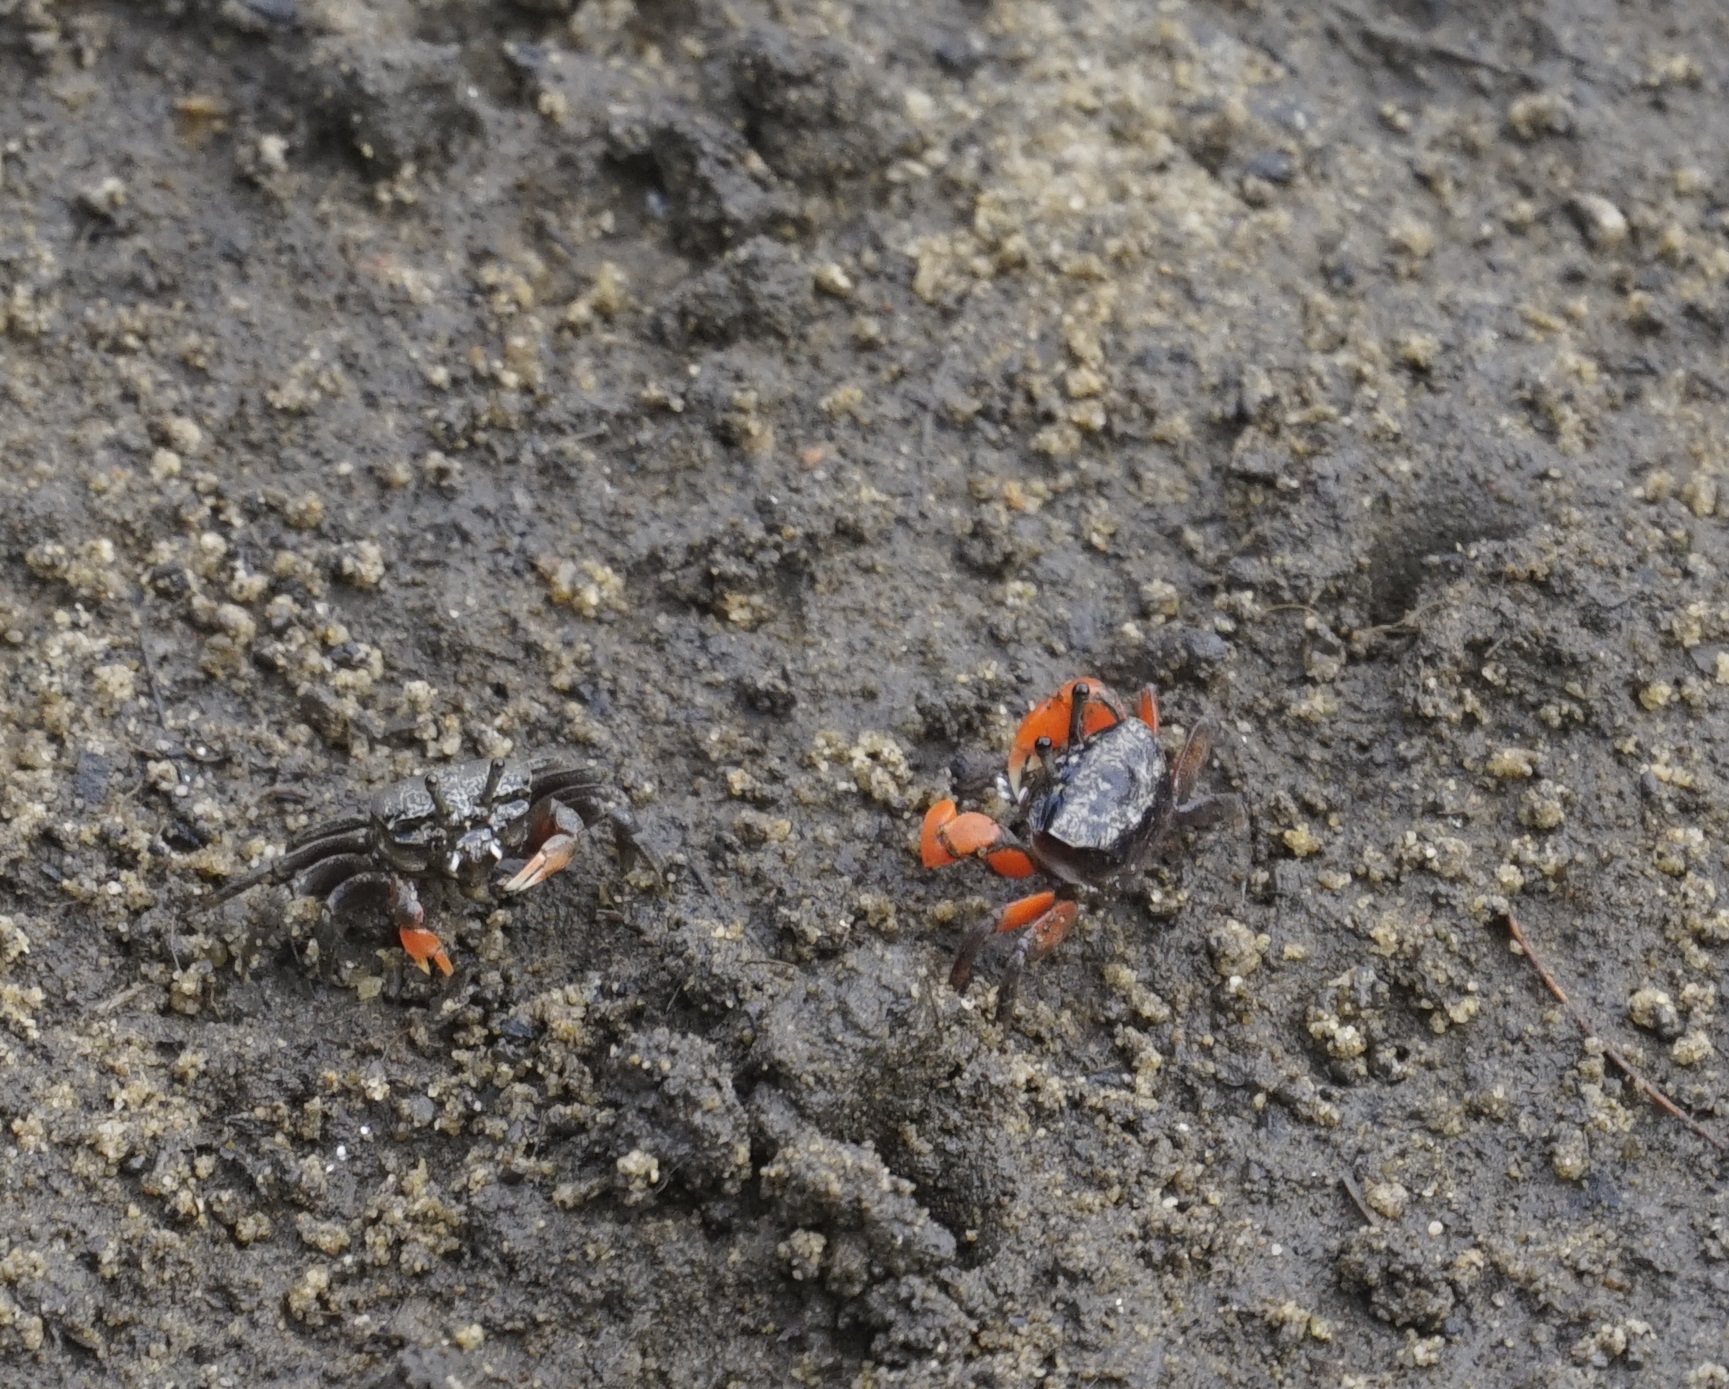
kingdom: Animalia
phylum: Arthropoda
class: Malacostraca
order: Decapoda
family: Heloeciidae
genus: Heloecius
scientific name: Heloecius cordiformis
